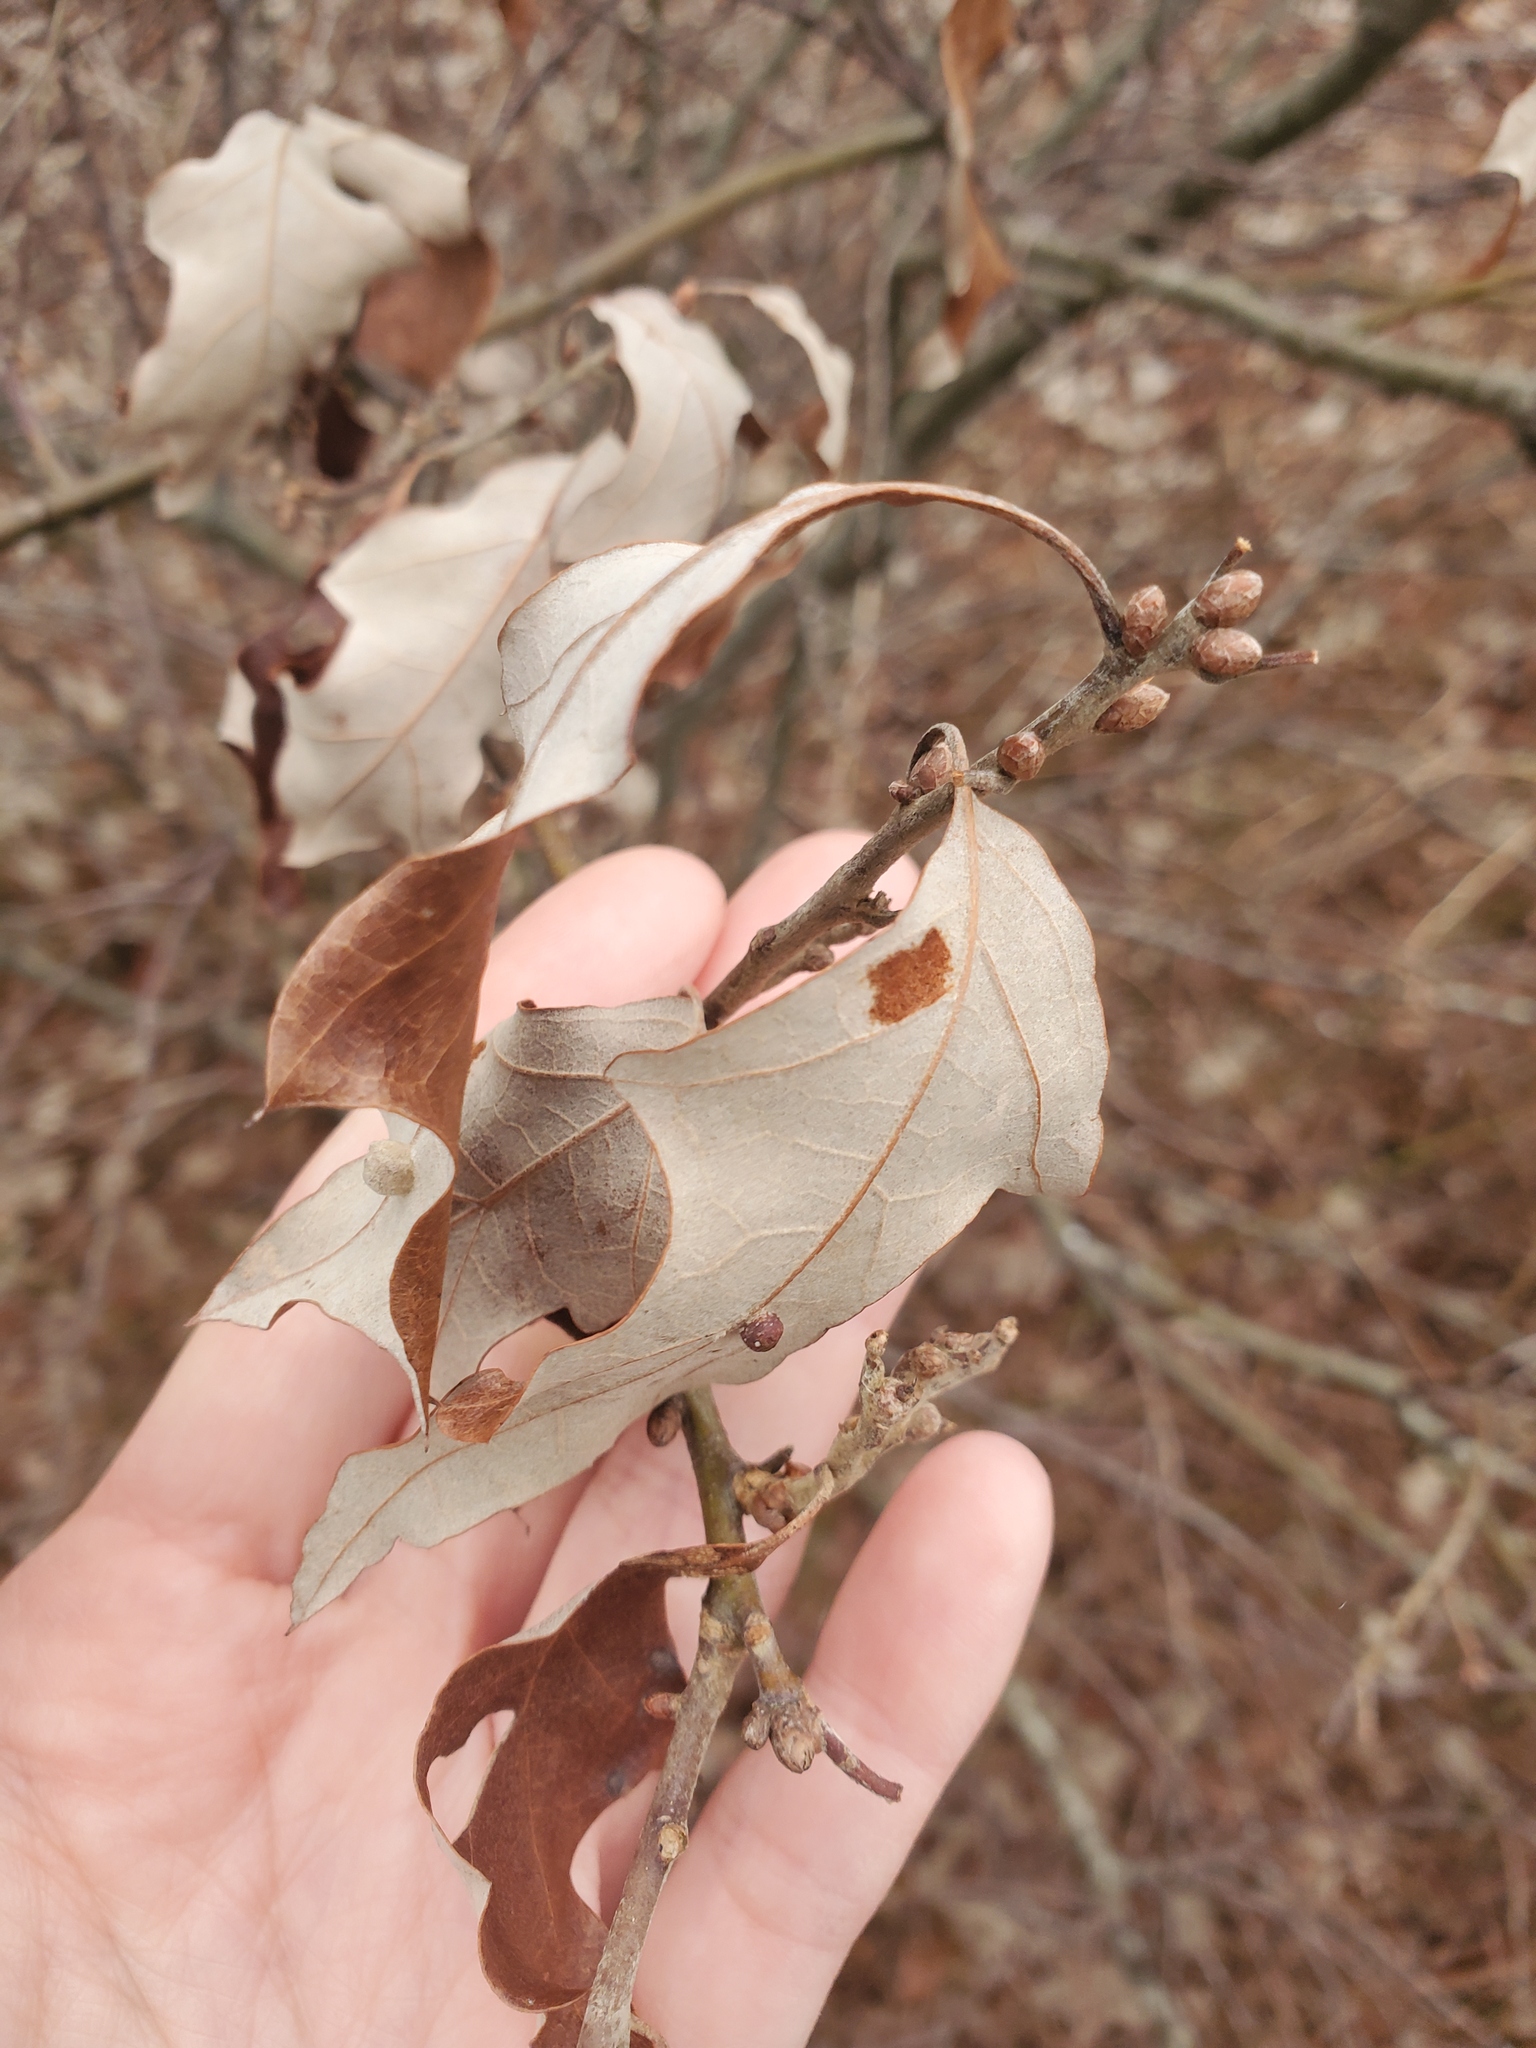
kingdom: Plantae
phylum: Tracheophyta
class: Magnoliopsida
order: Fagales
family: Fagaceae
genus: Quercus
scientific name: Quercus ilicifolia
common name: Bear oak
